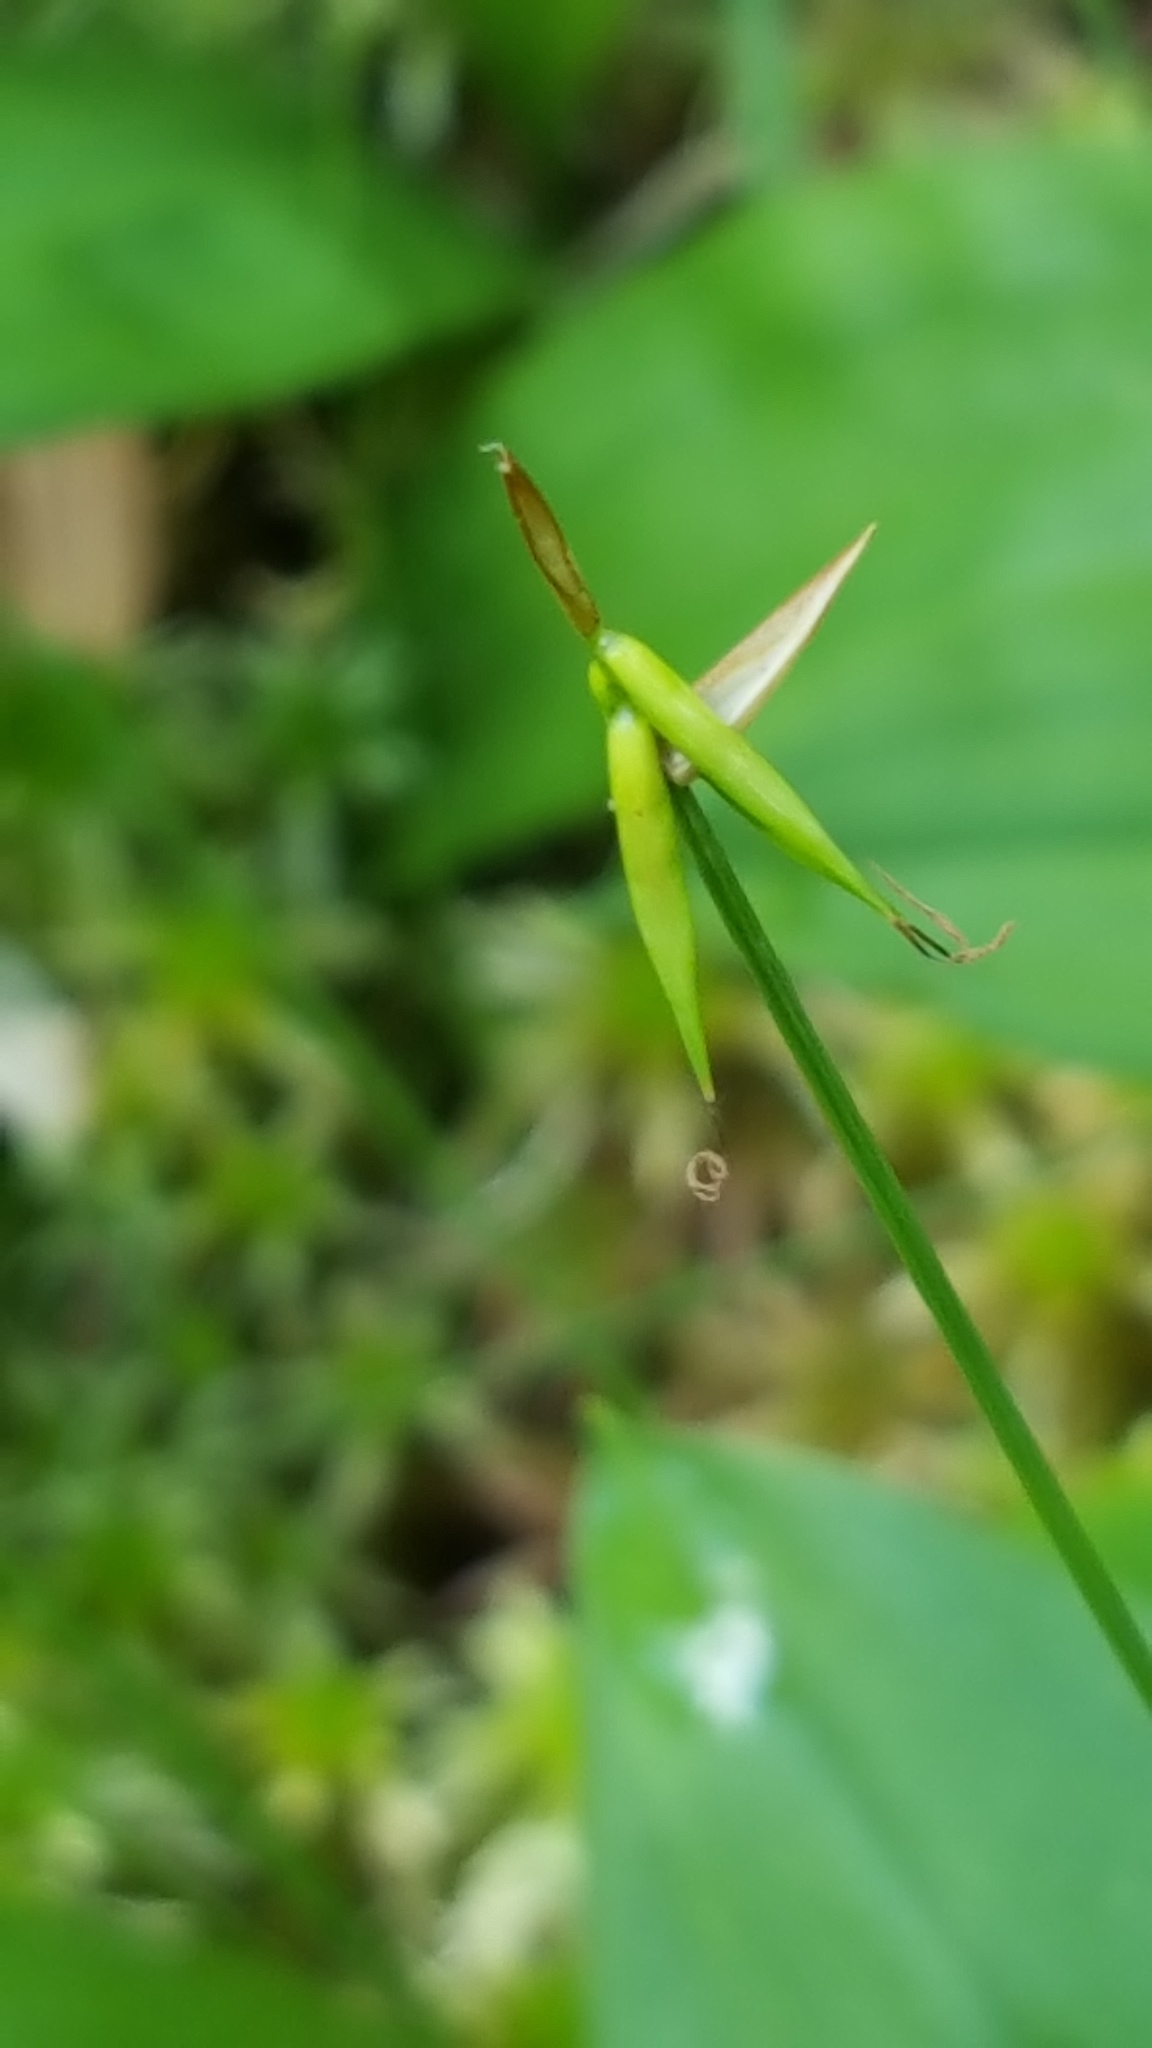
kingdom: Plantae
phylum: Tracheophyta
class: Liliopsida
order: Poales
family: Cyperaceae
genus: Carex
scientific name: Carex pauciflora
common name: Few-flowered sedge
